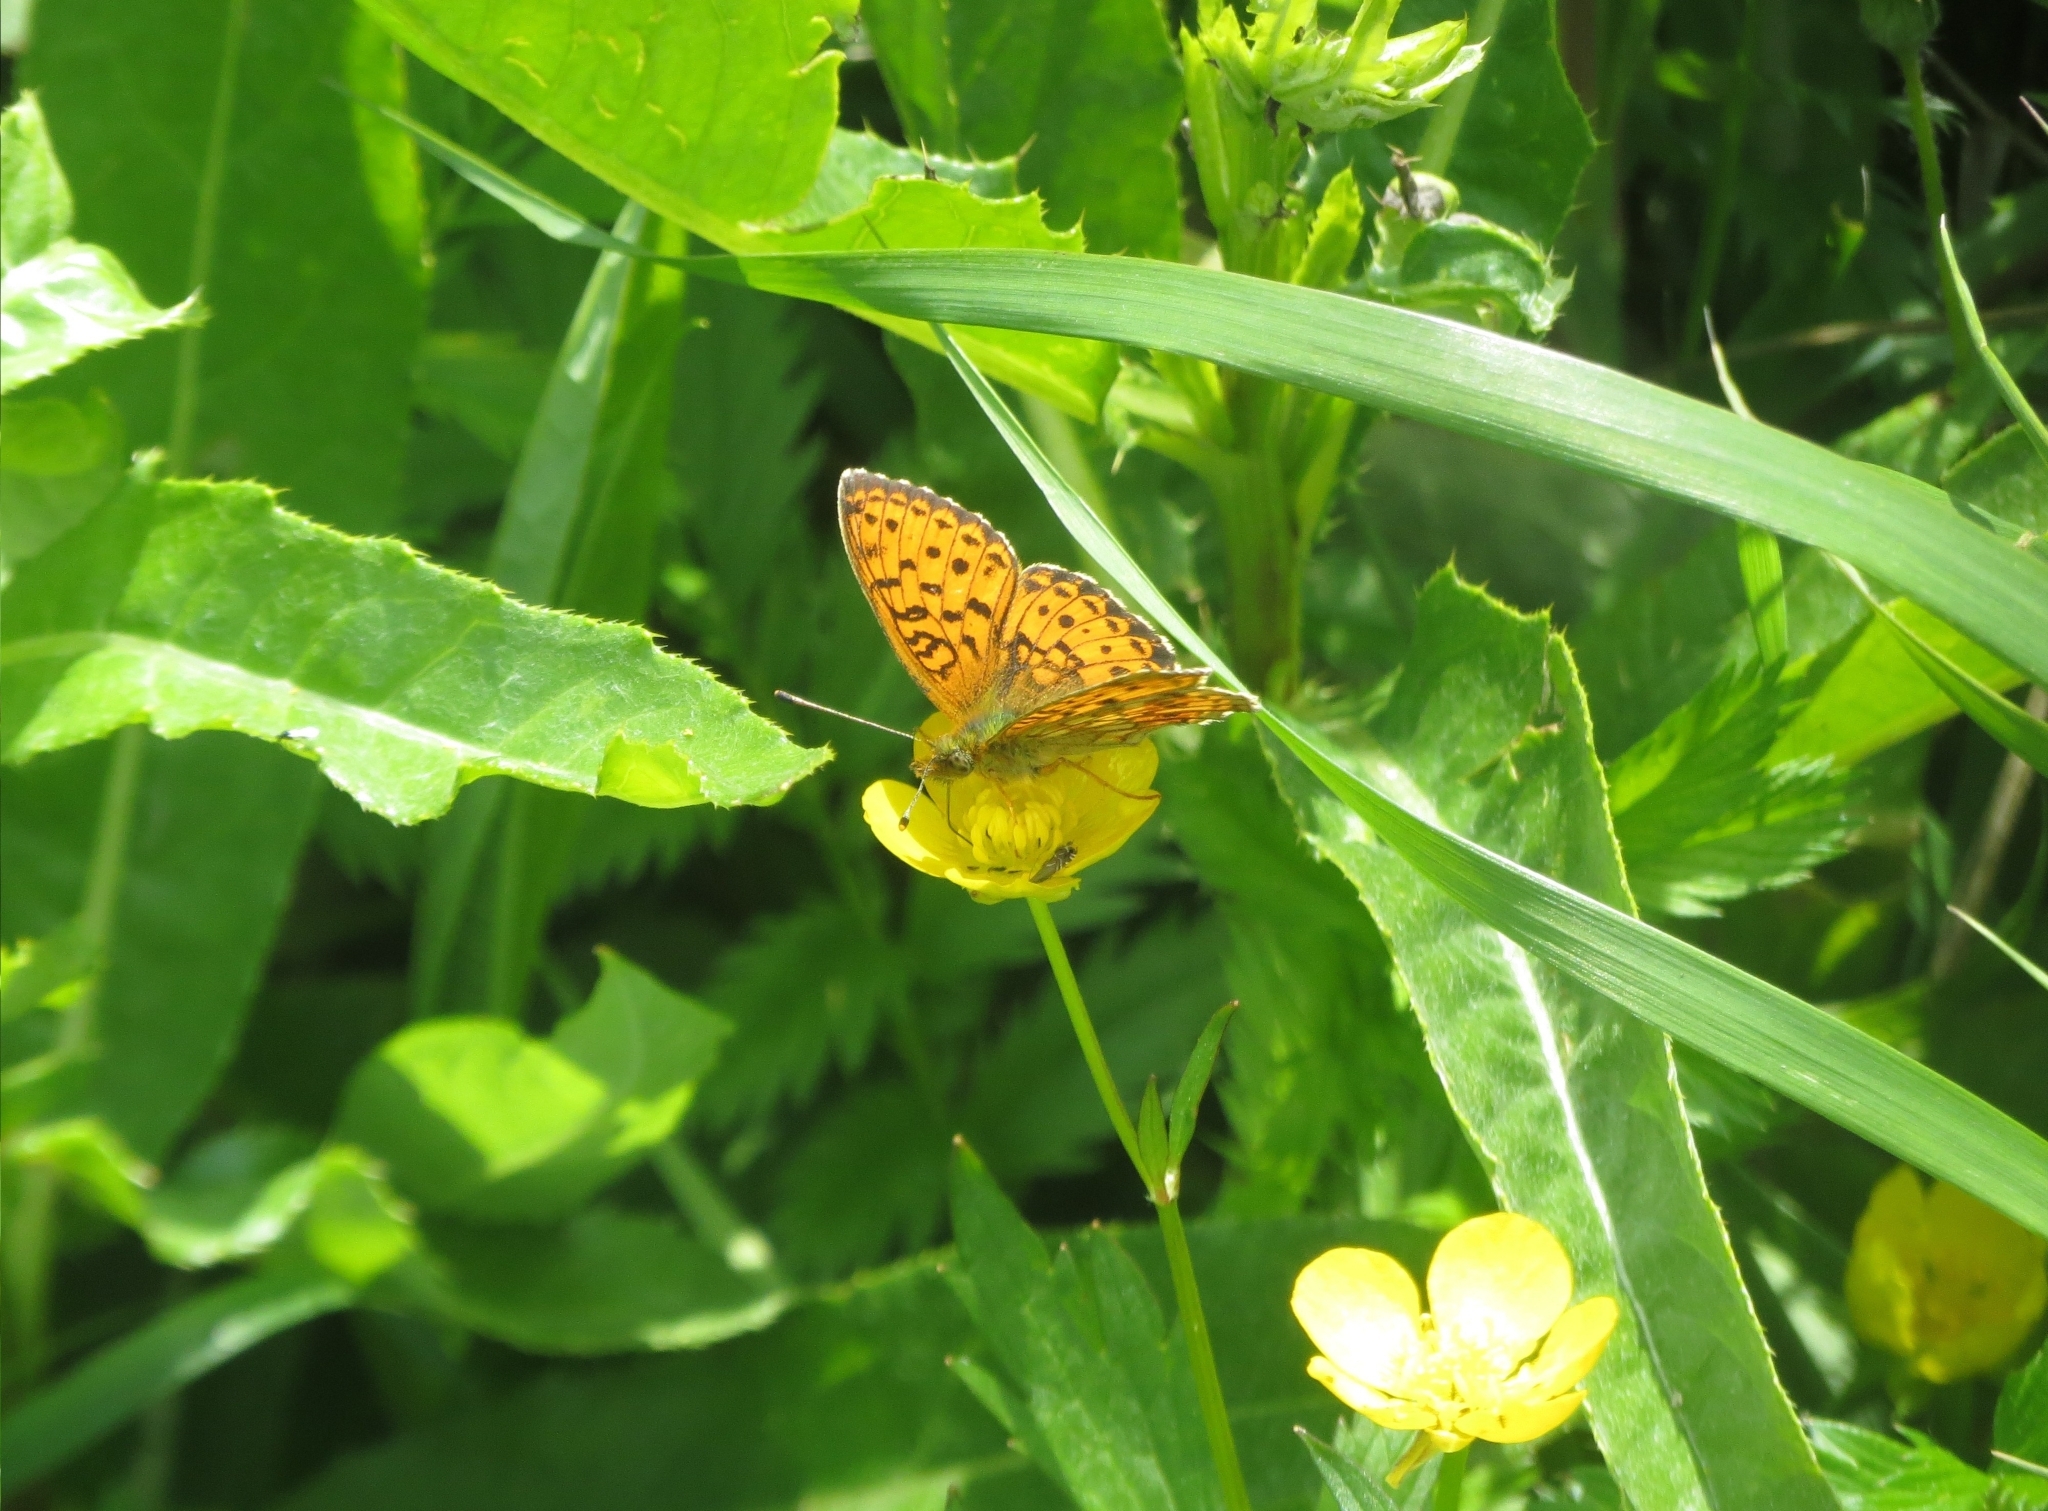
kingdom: Animalia
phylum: Arthropoda
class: Insecta
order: Lepidoptera
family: Nymphalidae
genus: Brenthis
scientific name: Brenthis ino
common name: Lesser marbled fritillary
